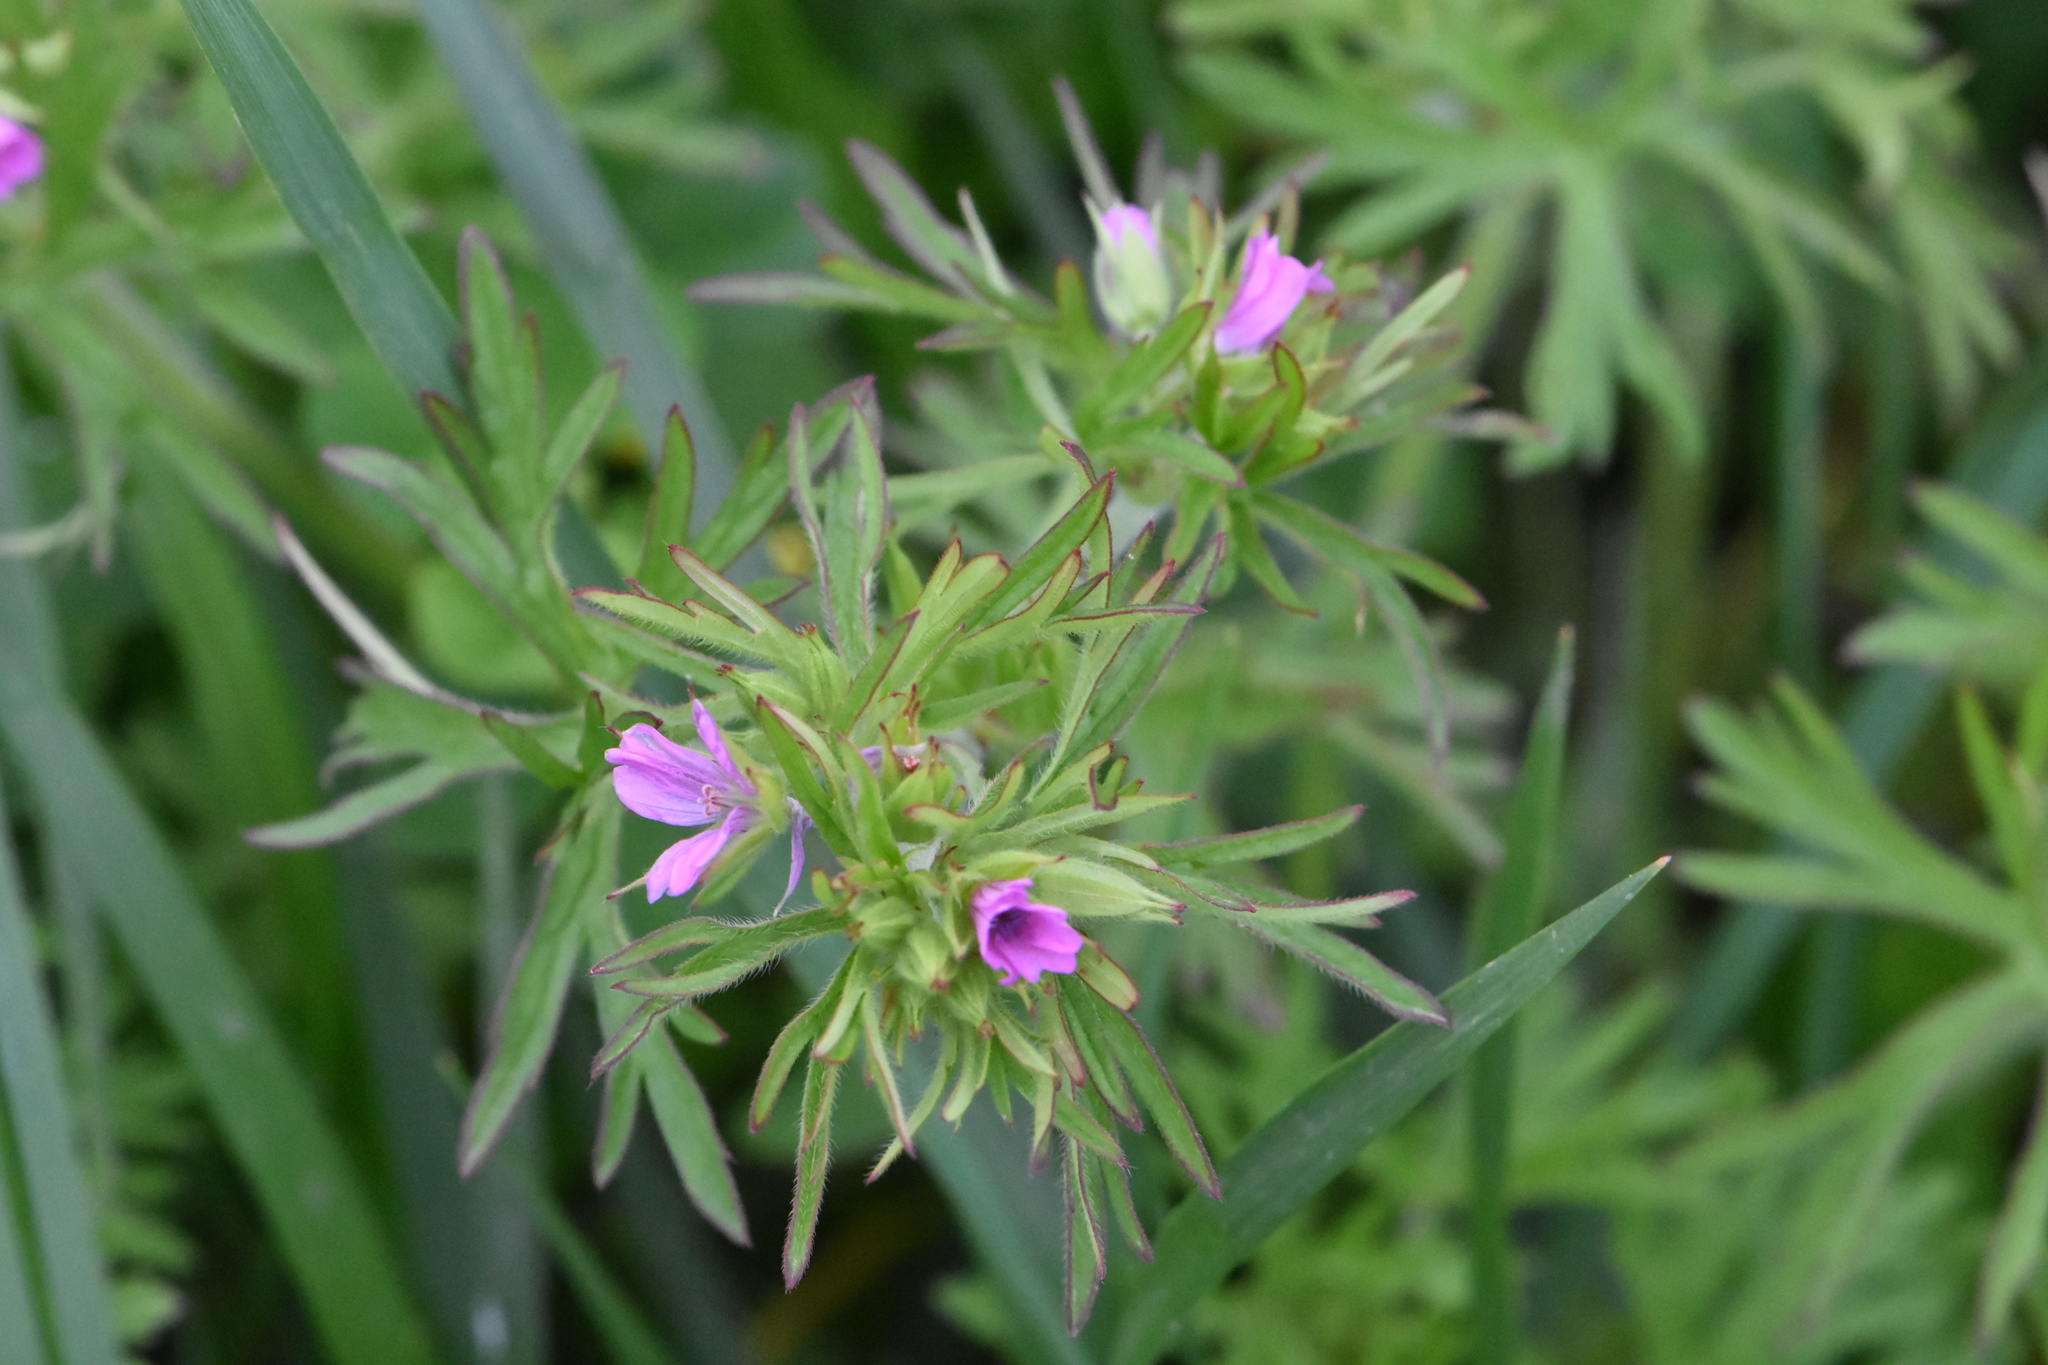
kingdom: Plantae
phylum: Tracheophyta
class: Magnoliopsida
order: Geraniales
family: Geraniaceae
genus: Geranium
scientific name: Geranium dissectum
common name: Cut-leaved crane's-bill
